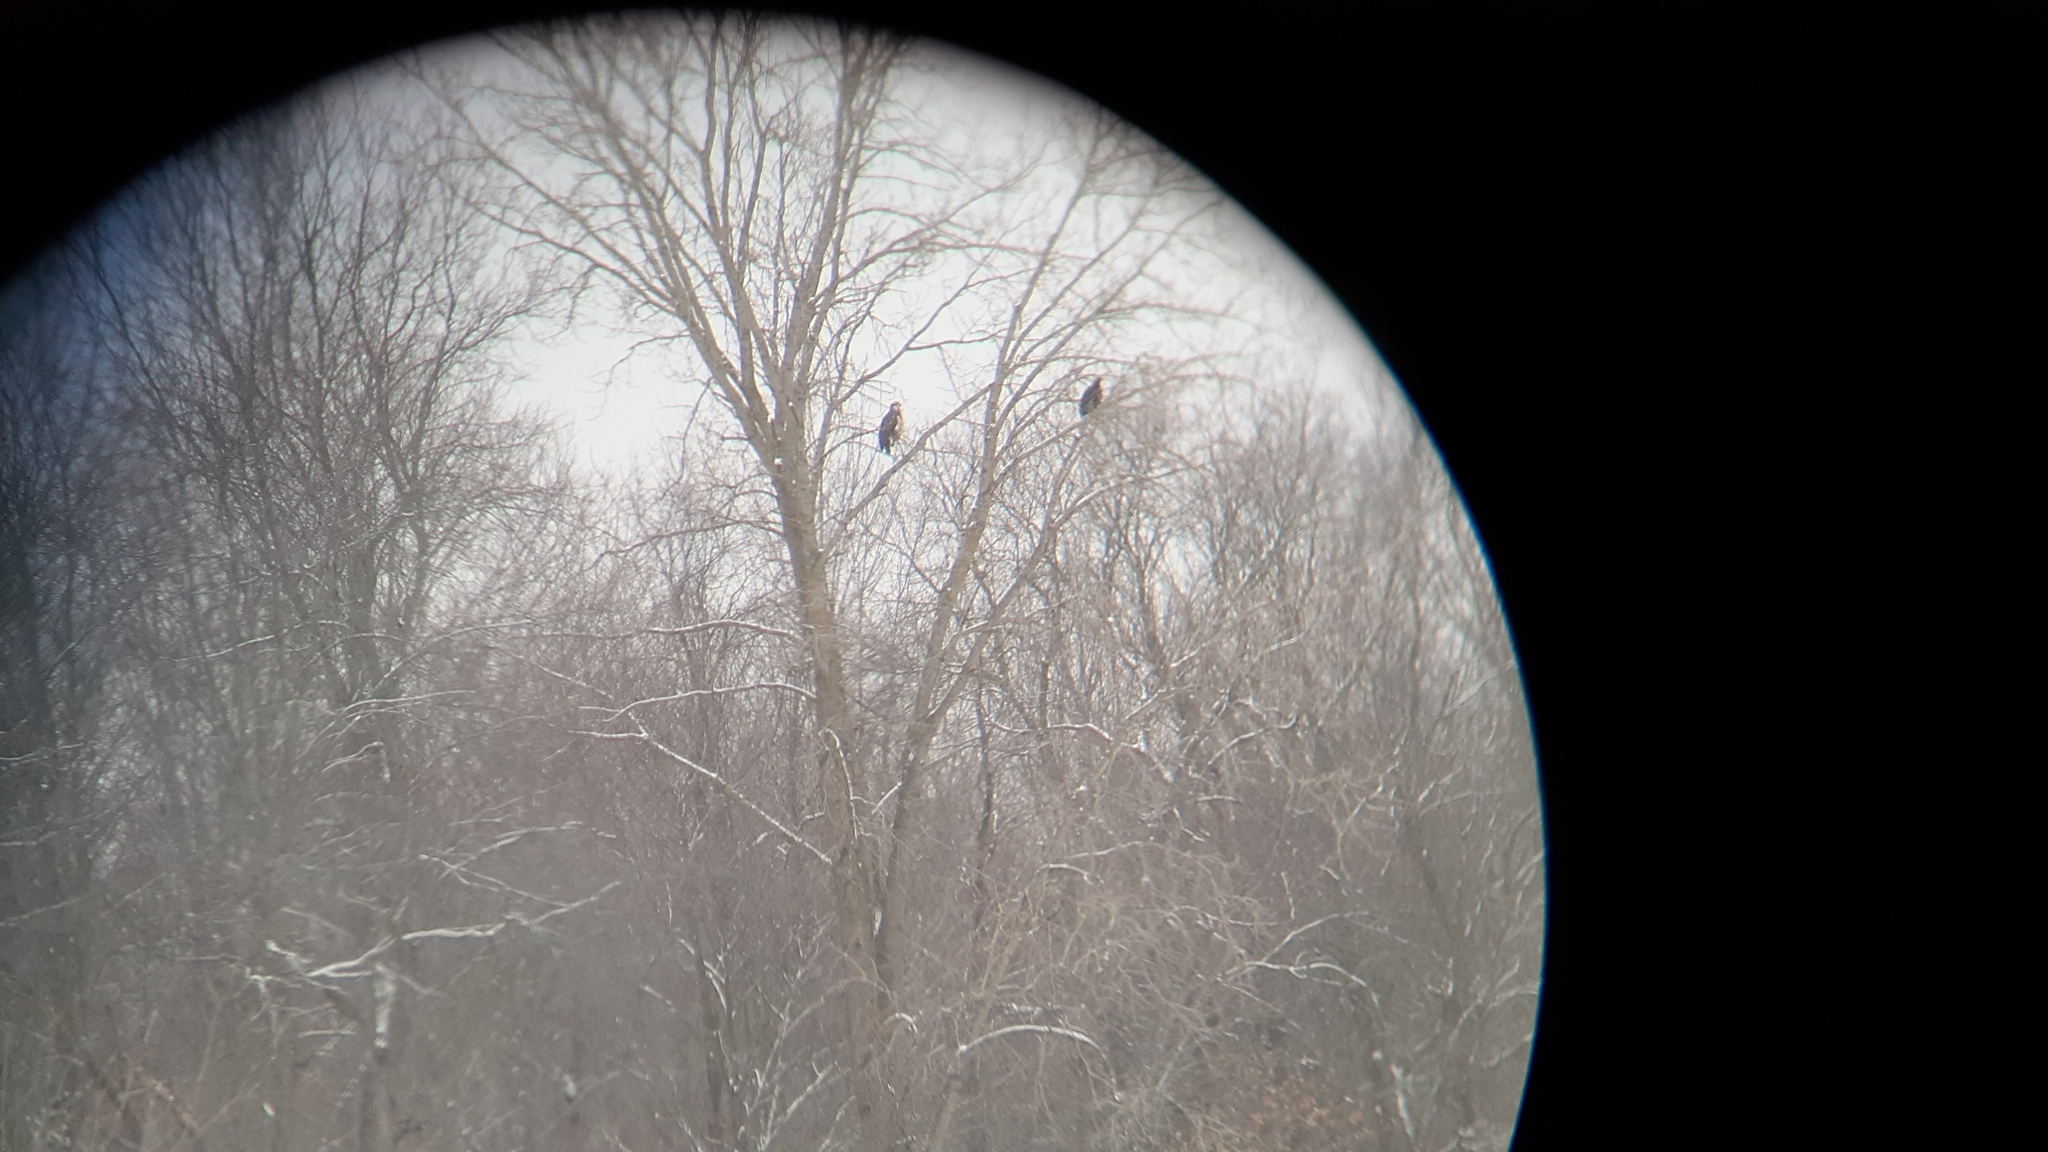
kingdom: Animalia
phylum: Chordata
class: Aves
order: Accipitriformes
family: Accipitridae
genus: Aquila
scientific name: Aquila chrysaetos
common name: Golden eagle
